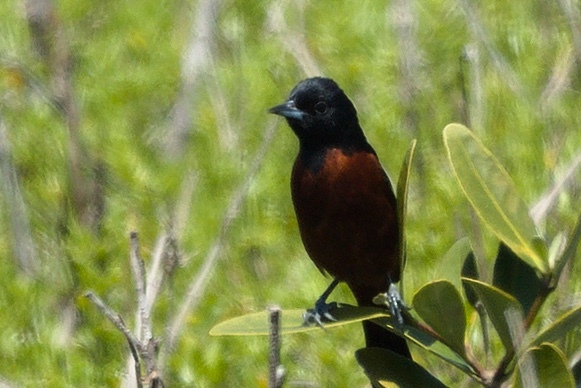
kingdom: Animalia
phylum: Chordata
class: Aves
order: Passeriformes
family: Icteridae
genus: Icterus
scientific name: Icterus spurius
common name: Orchard oriole
